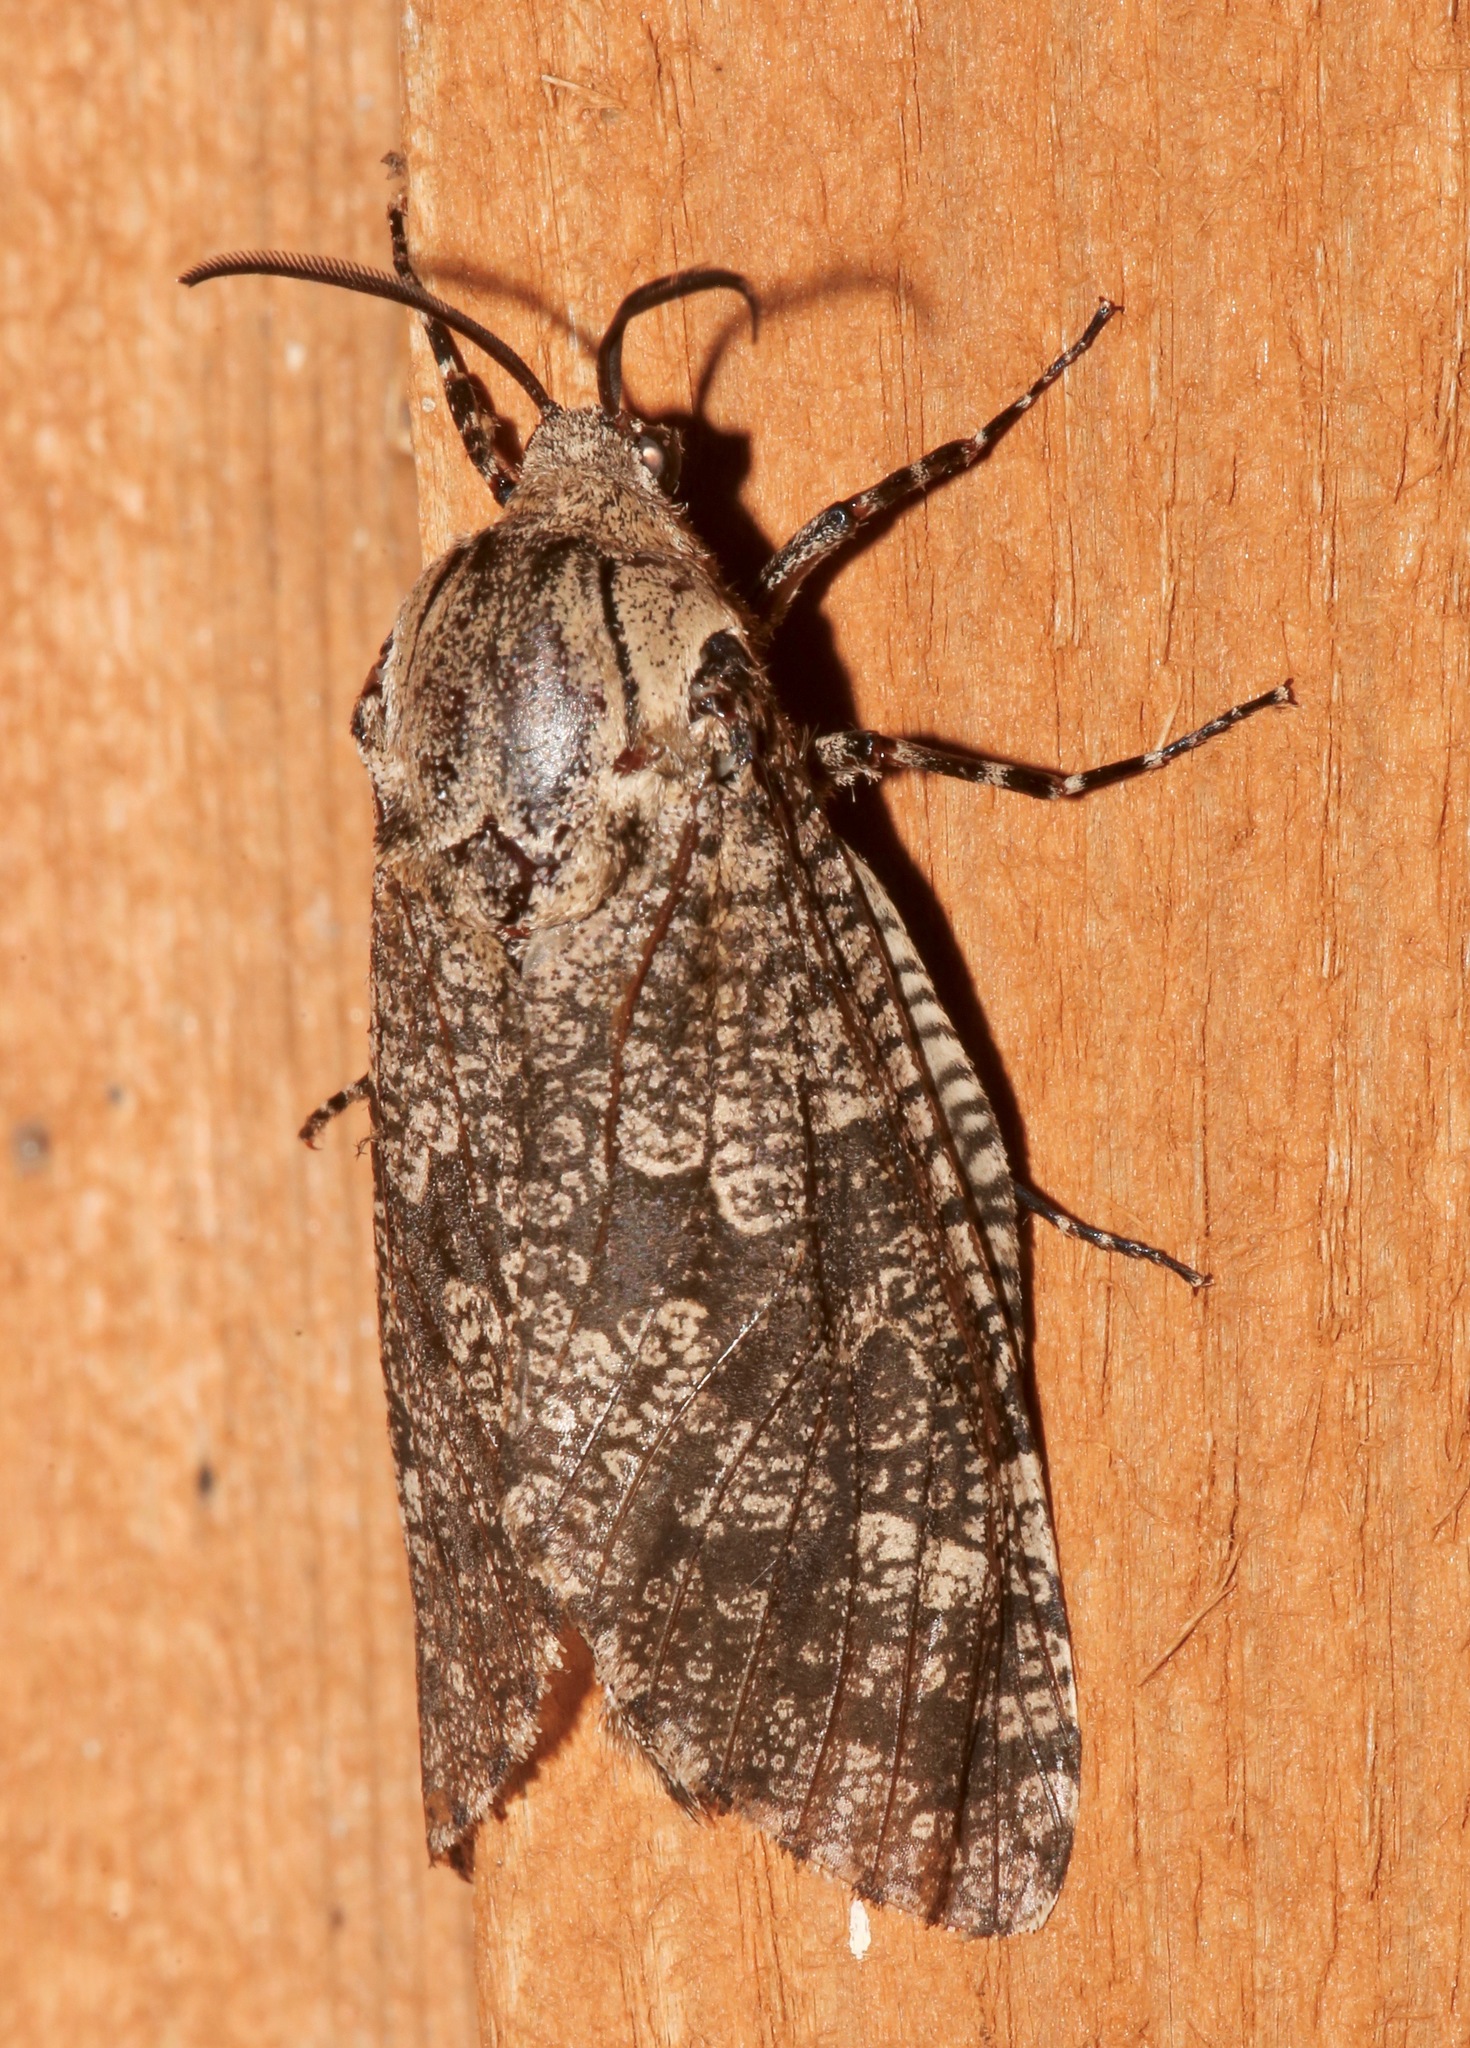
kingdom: Animalia
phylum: Arthropoda
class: Insecta
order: Lepidoptera
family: Cossidae
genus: Prionoxystus
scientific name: Prionoxystus robiniae
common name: Carpenterworm
